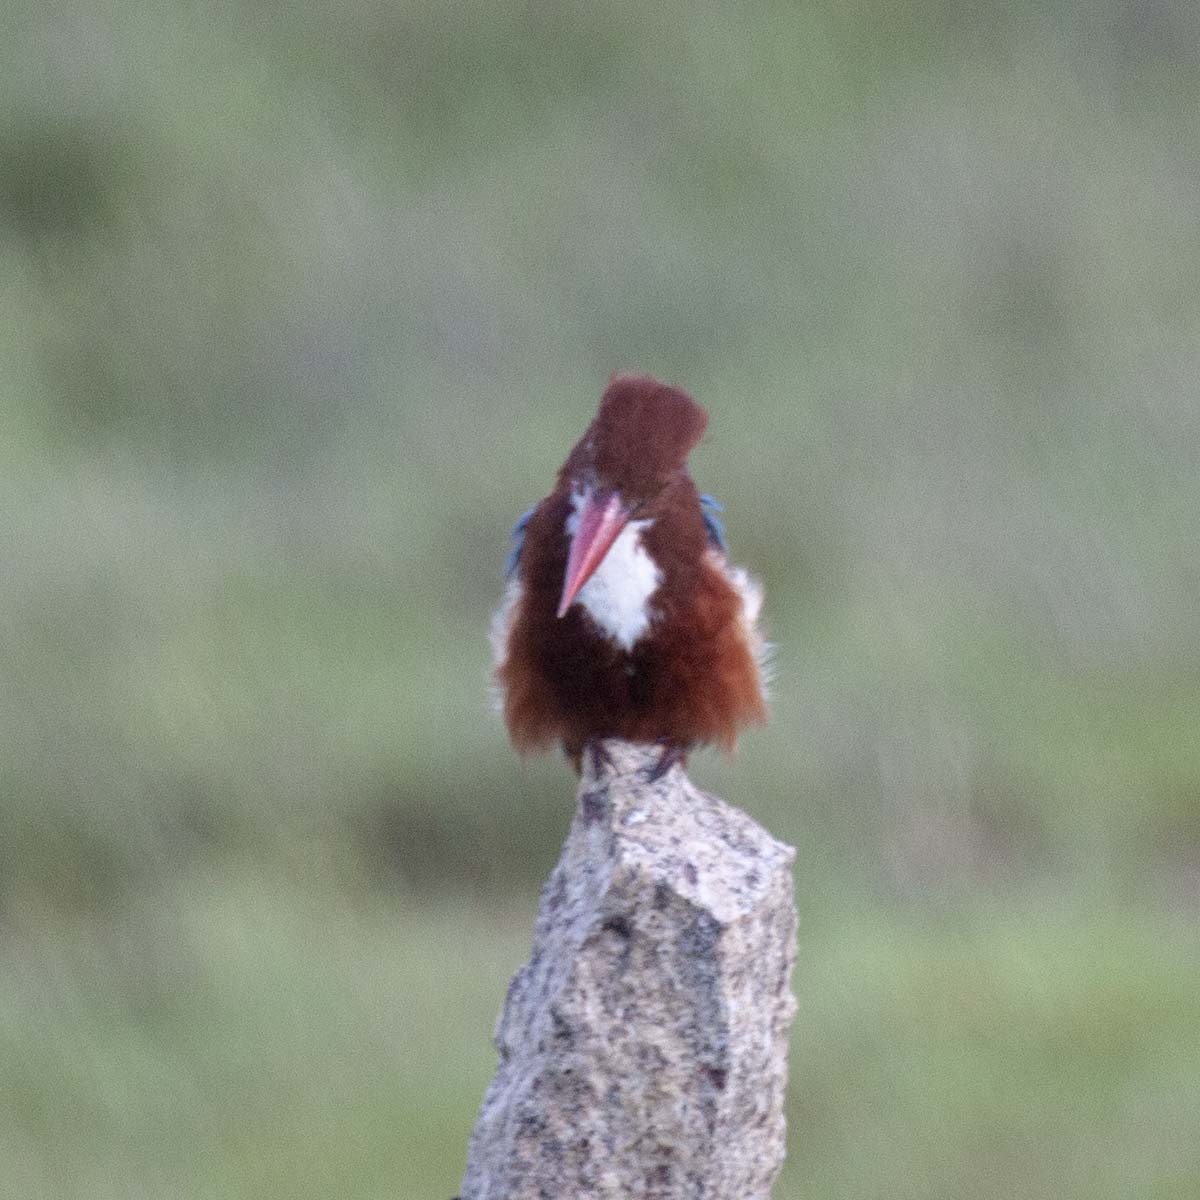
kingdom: Animalia
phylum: Chordata
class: Aves
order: Coraciiformes
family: Alcedinidae
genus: Halcyon
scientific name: Halcyon smyrnensis
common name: White-throated kingfisher
